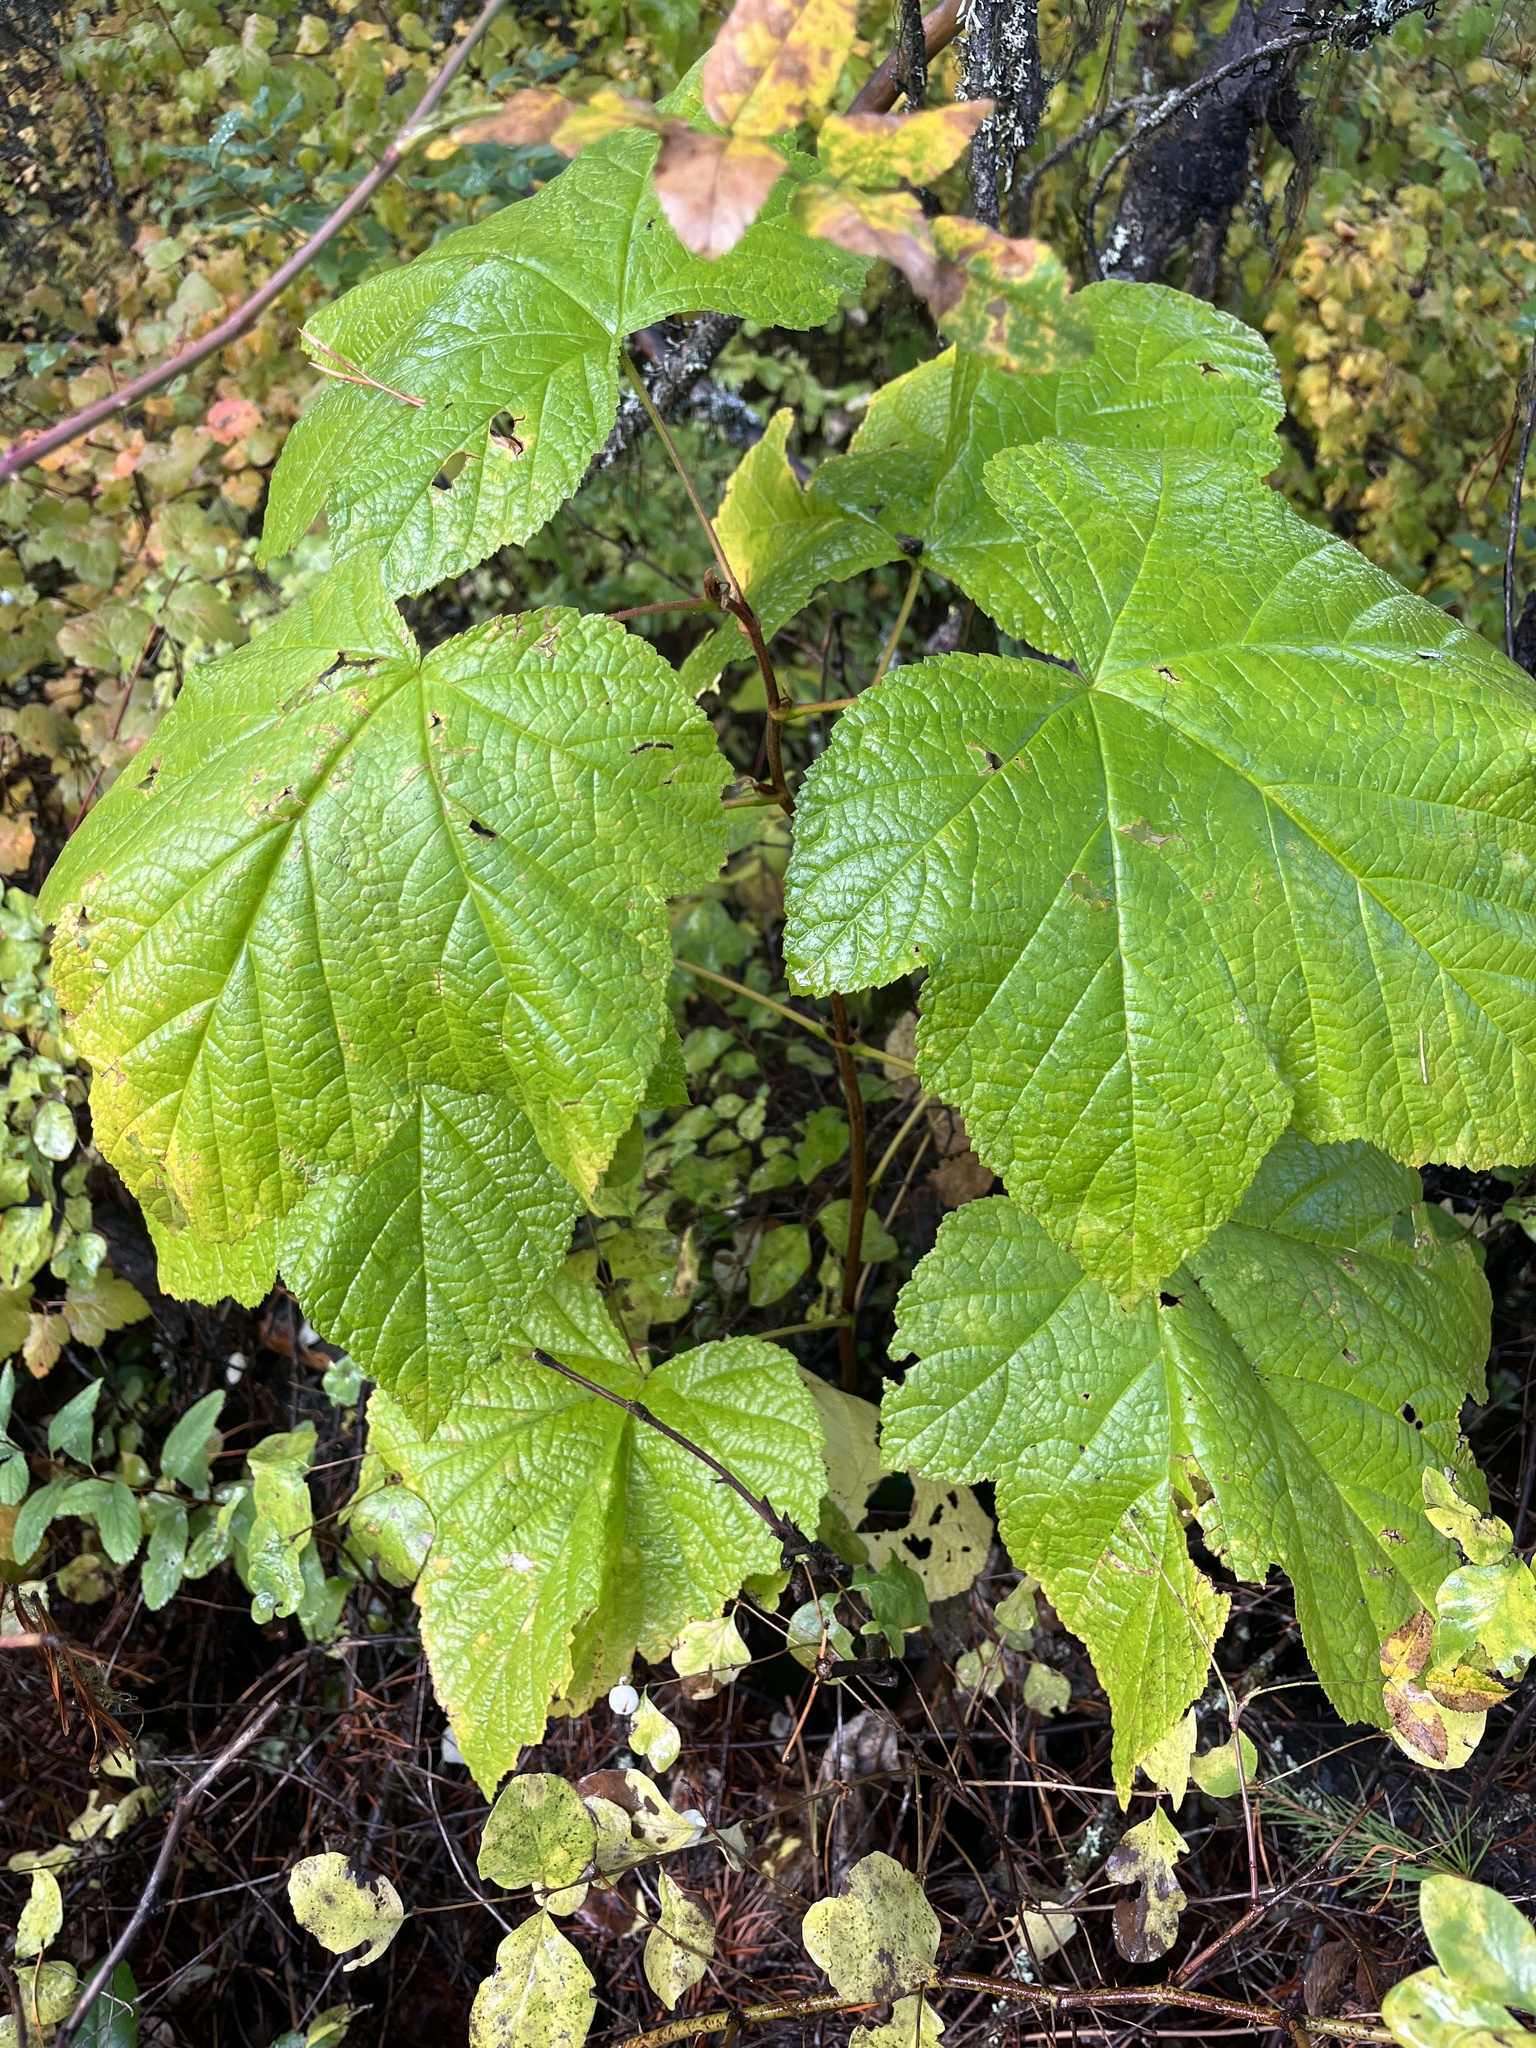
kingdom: Plantae
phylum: Tracheophyta
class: Magnoliopsida
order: Rosales
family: Rosaceae
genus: Rubus
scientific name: Rubus parviflorus
